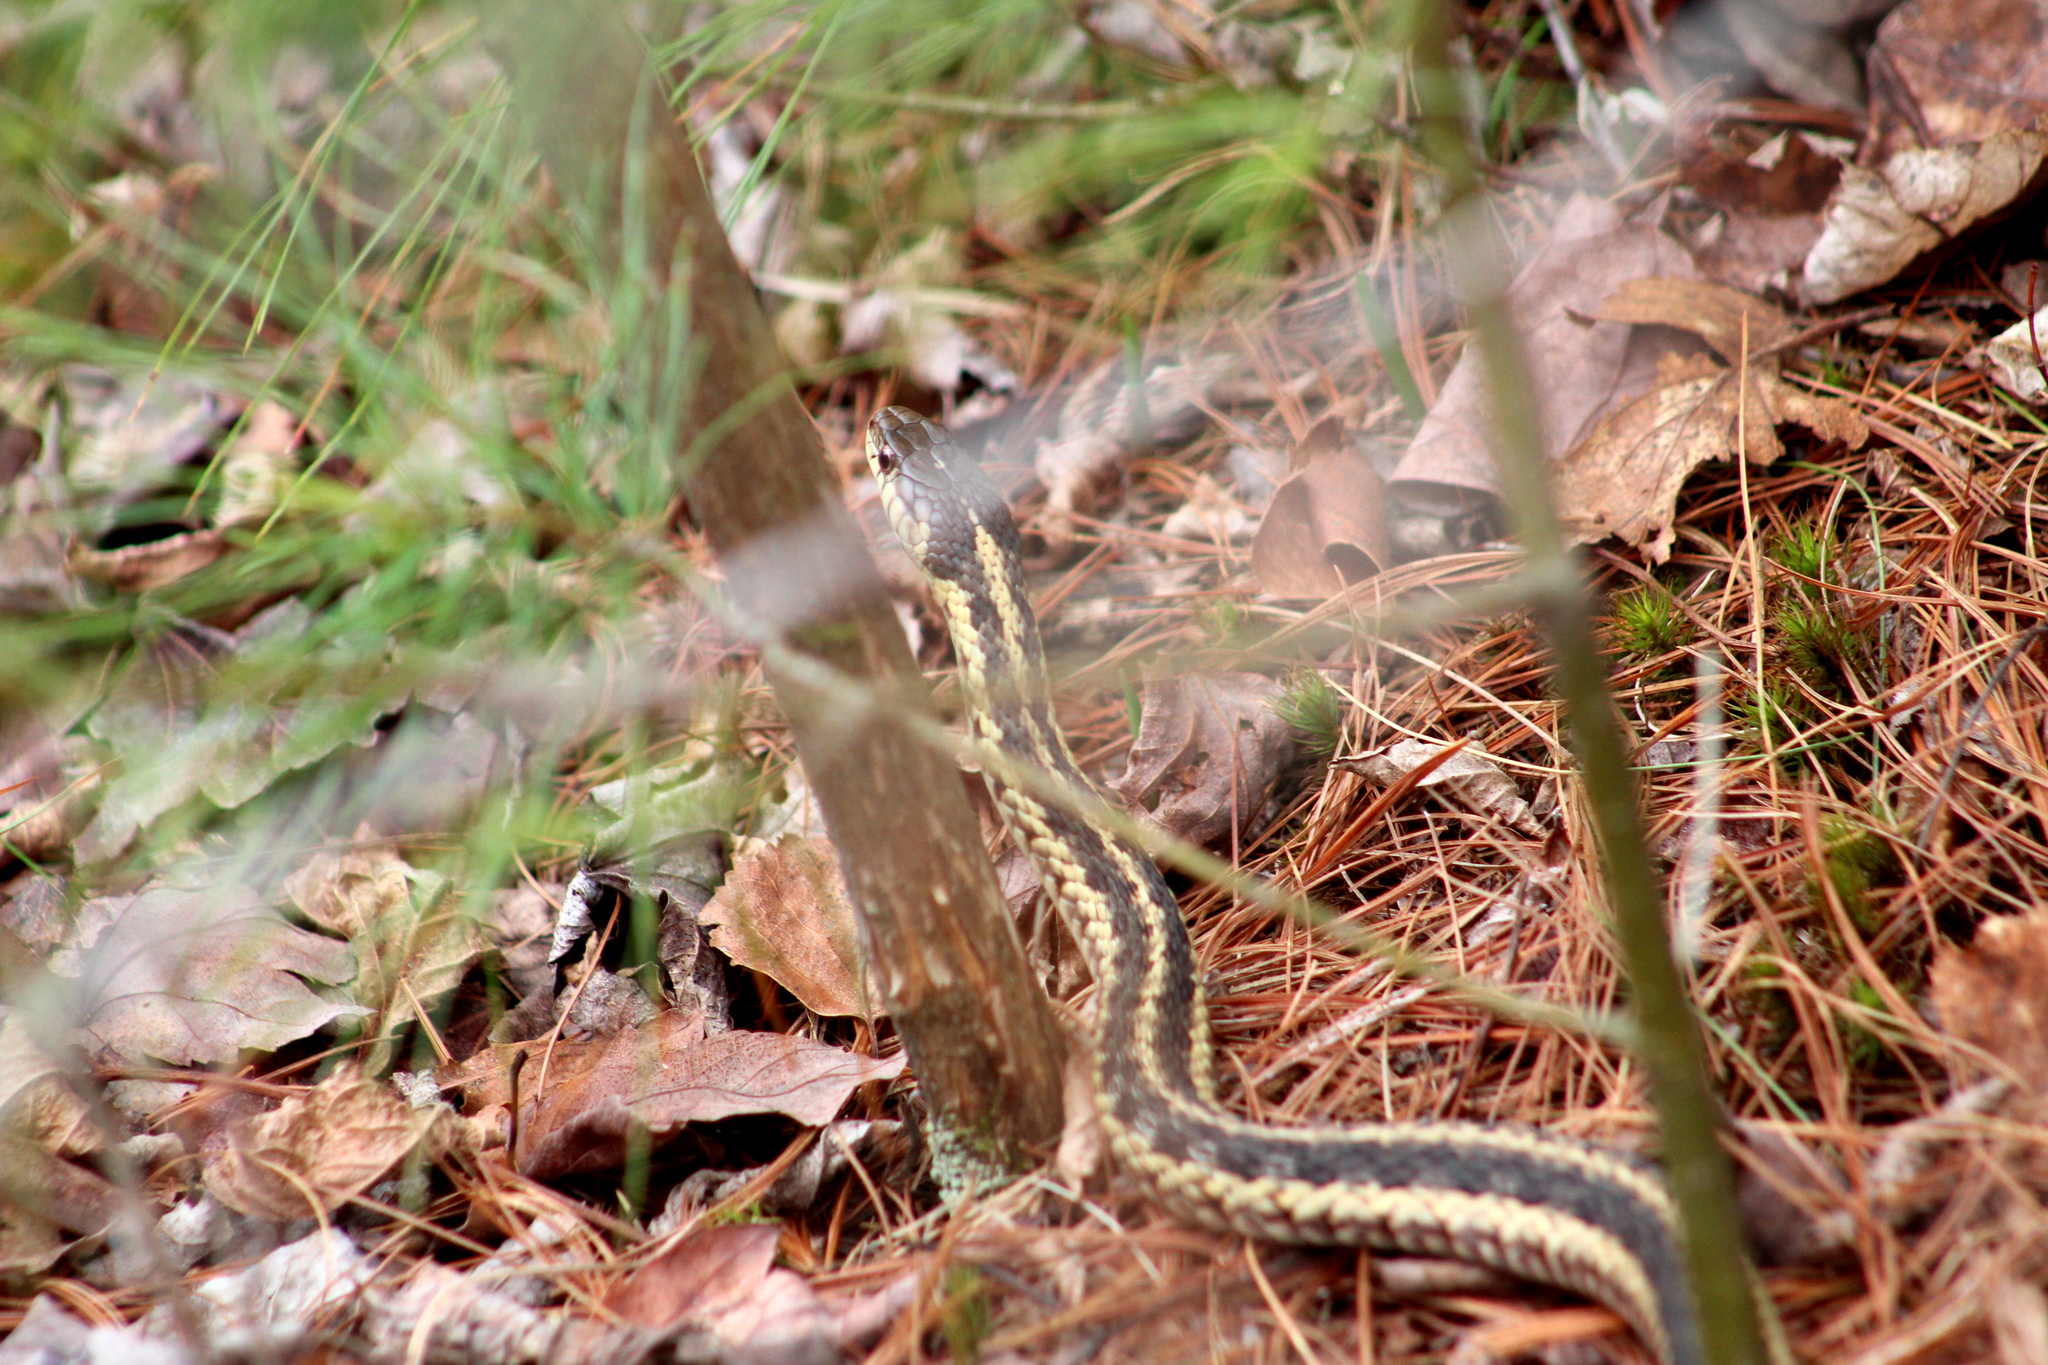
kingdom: Animalia
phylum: Chordata
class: Squamata
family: Colubridae
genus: Thamnophis
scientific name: Thamnophis sirtalis
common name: Common garter snake
